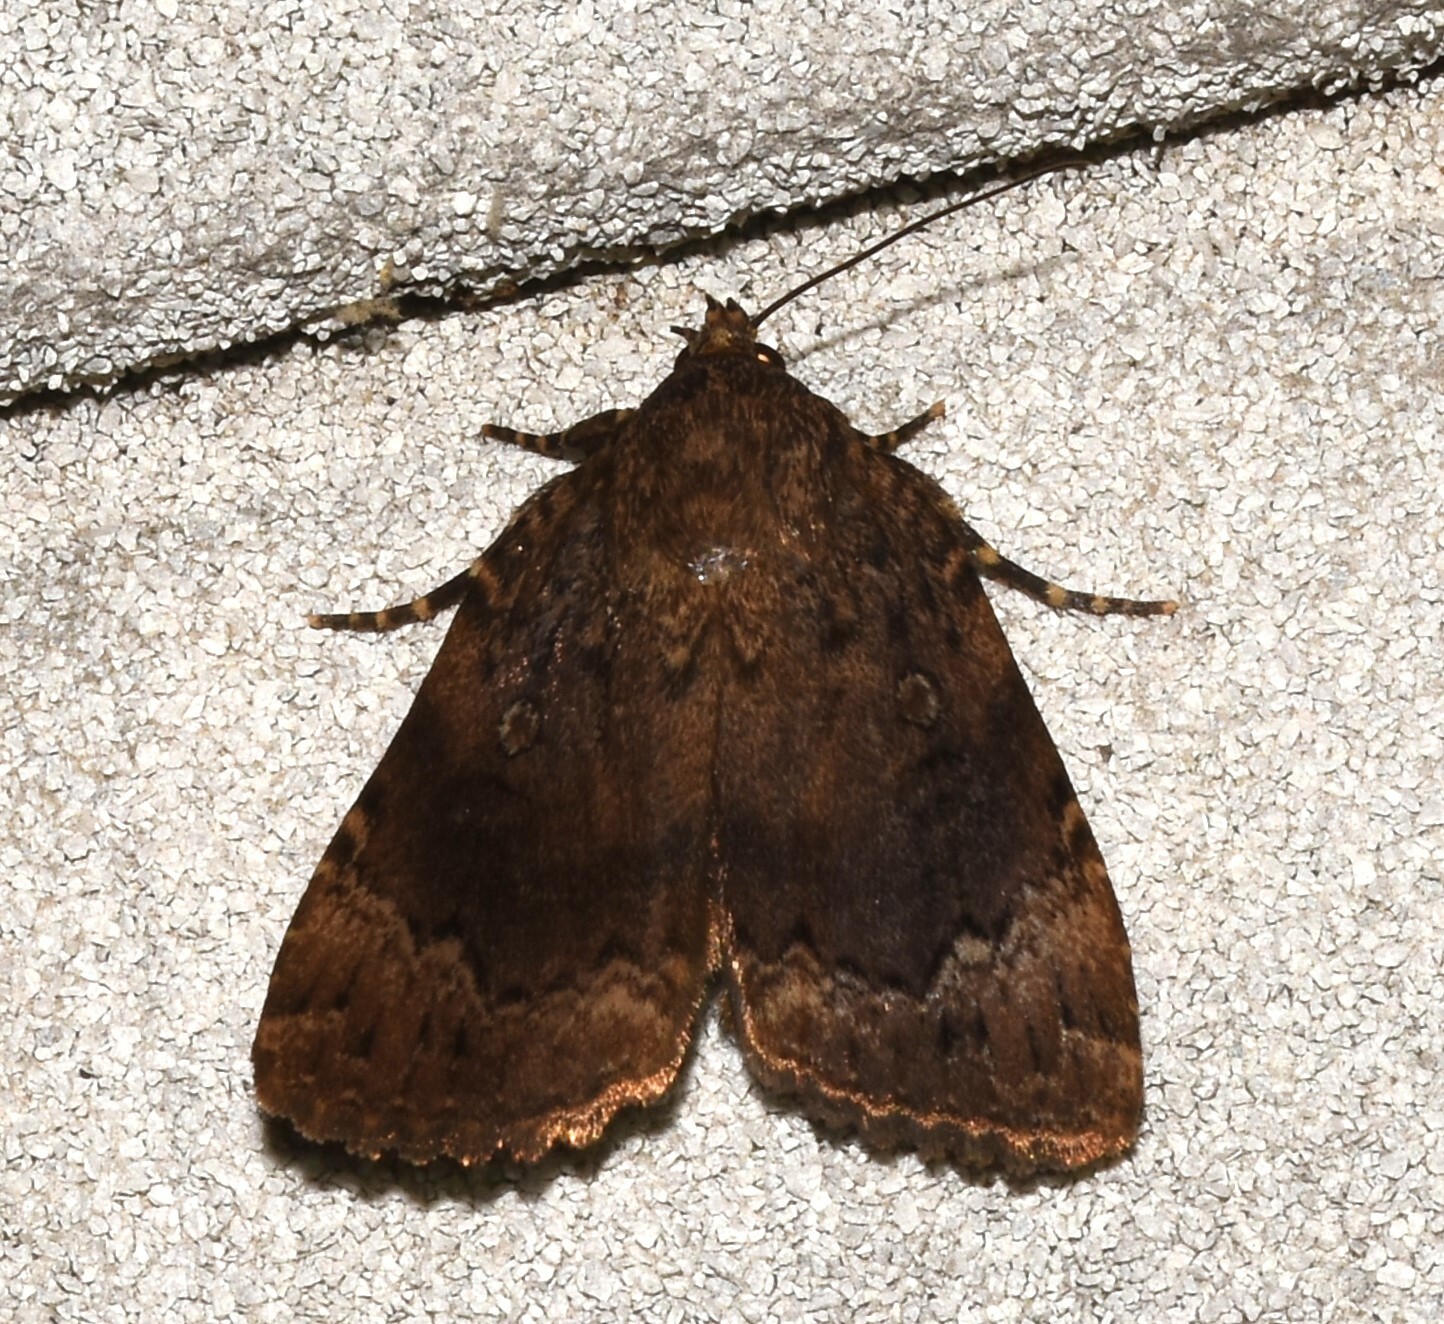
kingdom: Animalia
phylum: Arthropoda
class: Insecta
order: Lepidoptera
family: Noctuidae
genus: Amphipyra
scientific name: Amphipyra pyramidoides
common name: American copper underwing
